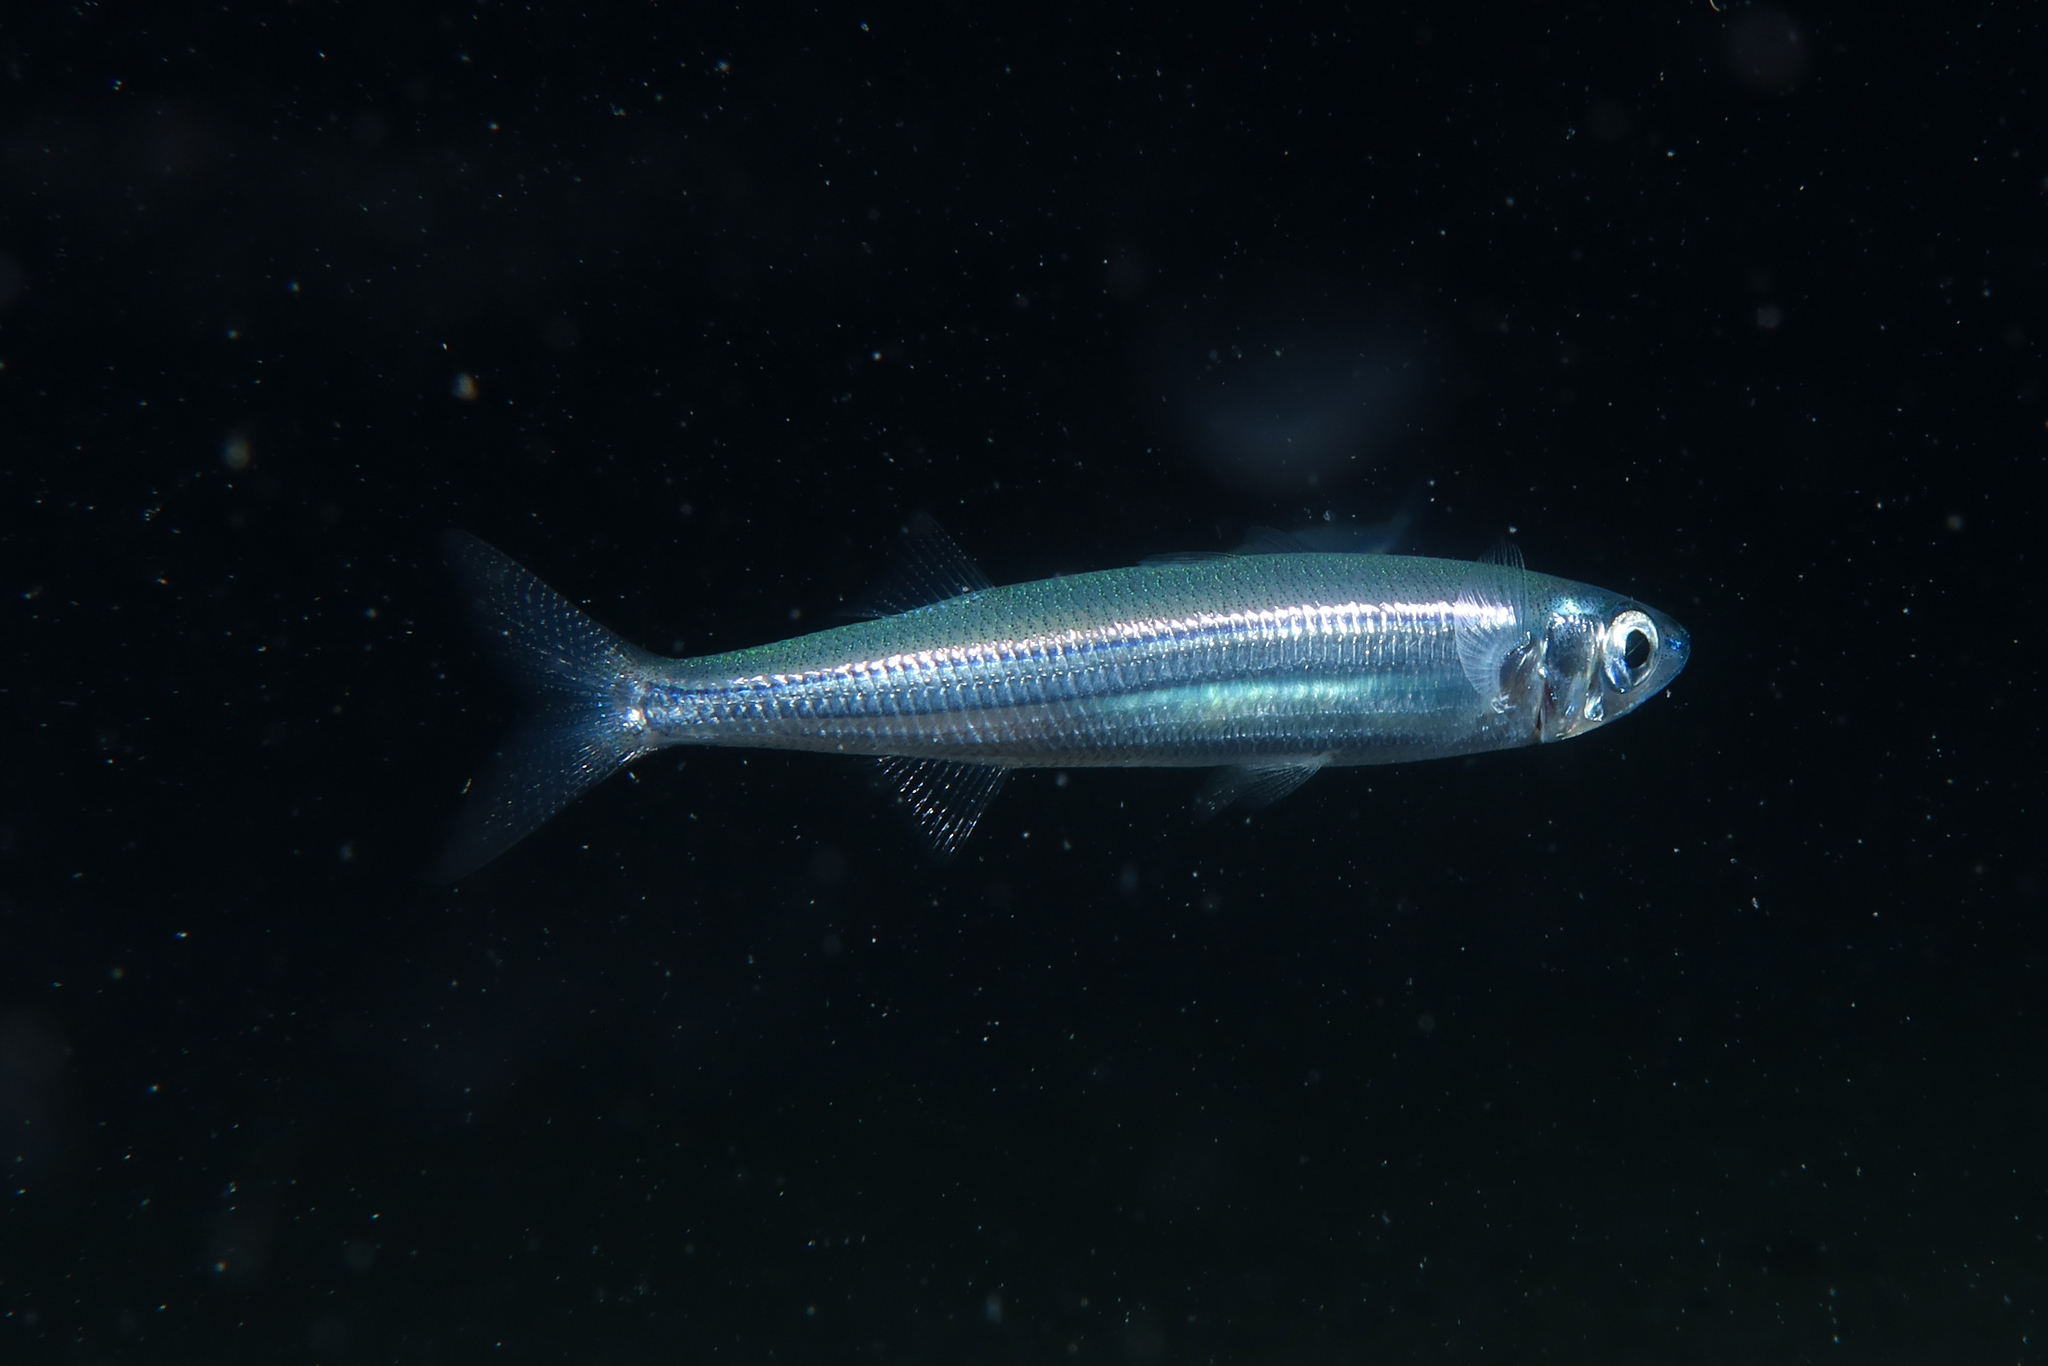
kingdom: Animalia
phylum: Chordata
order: Atheriniformes
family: Atherinidae
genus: Atherina
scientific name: Atherina hepsetus
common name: Mediterranean sand smelt
